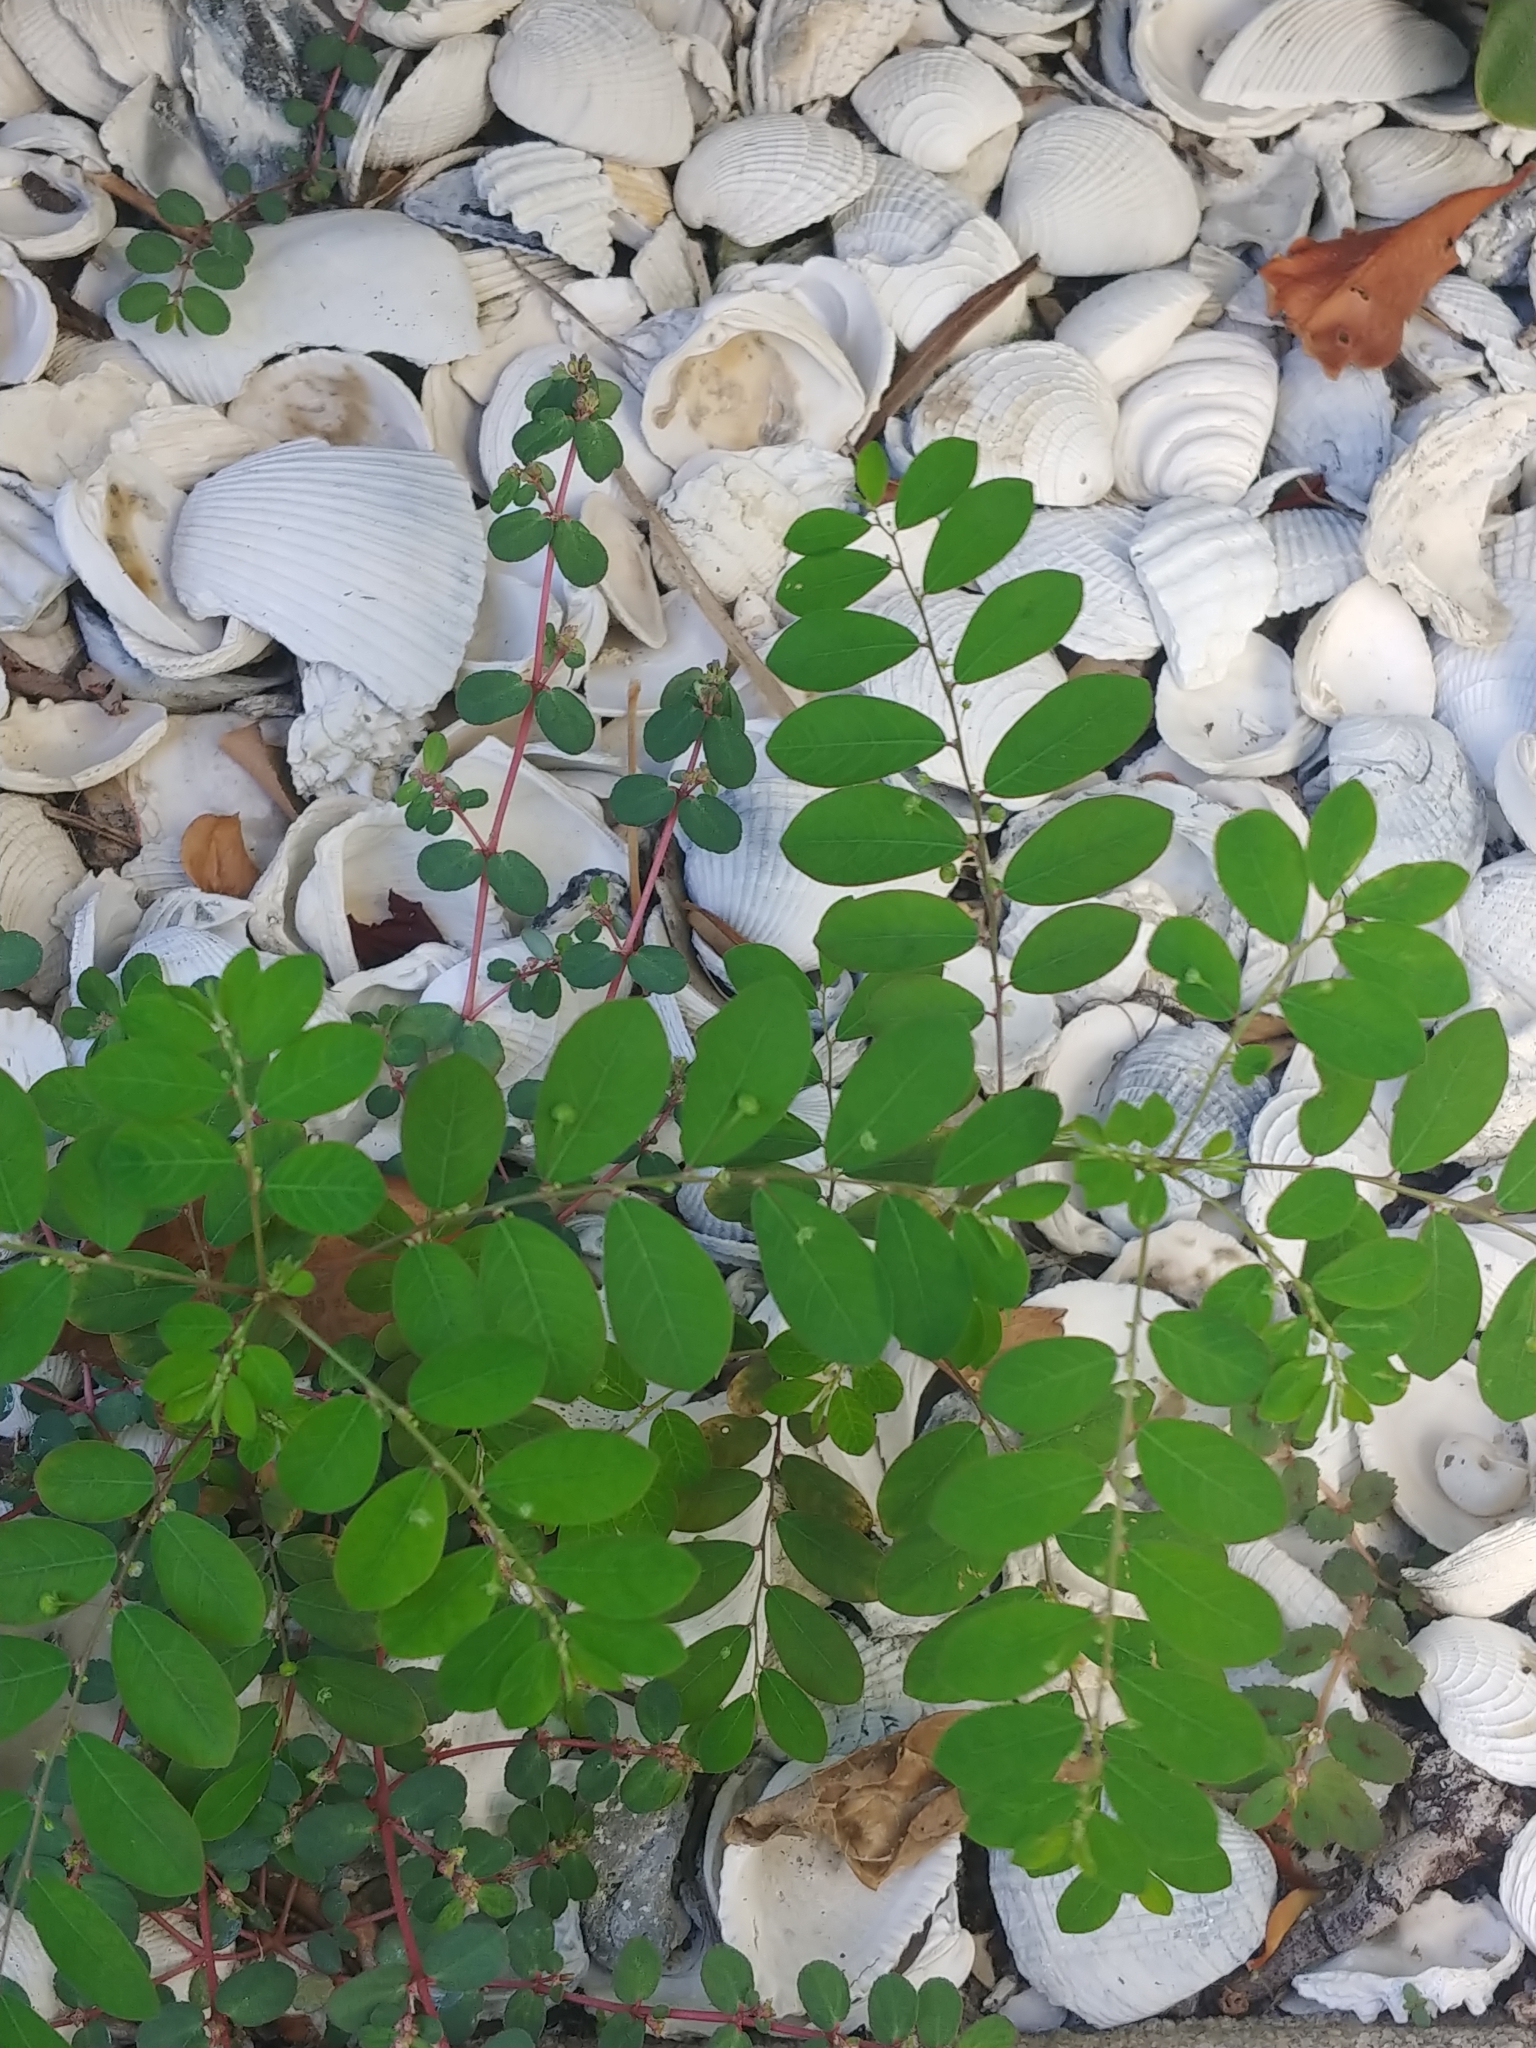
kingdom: Plantae
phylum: Tracheophyta
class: Magnoliopsida
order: Malpighiales
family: Phyllanthaceae
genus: Phyllanthus
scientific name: Phyllanthus tenellus
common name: Mascarene island leaf-flower
